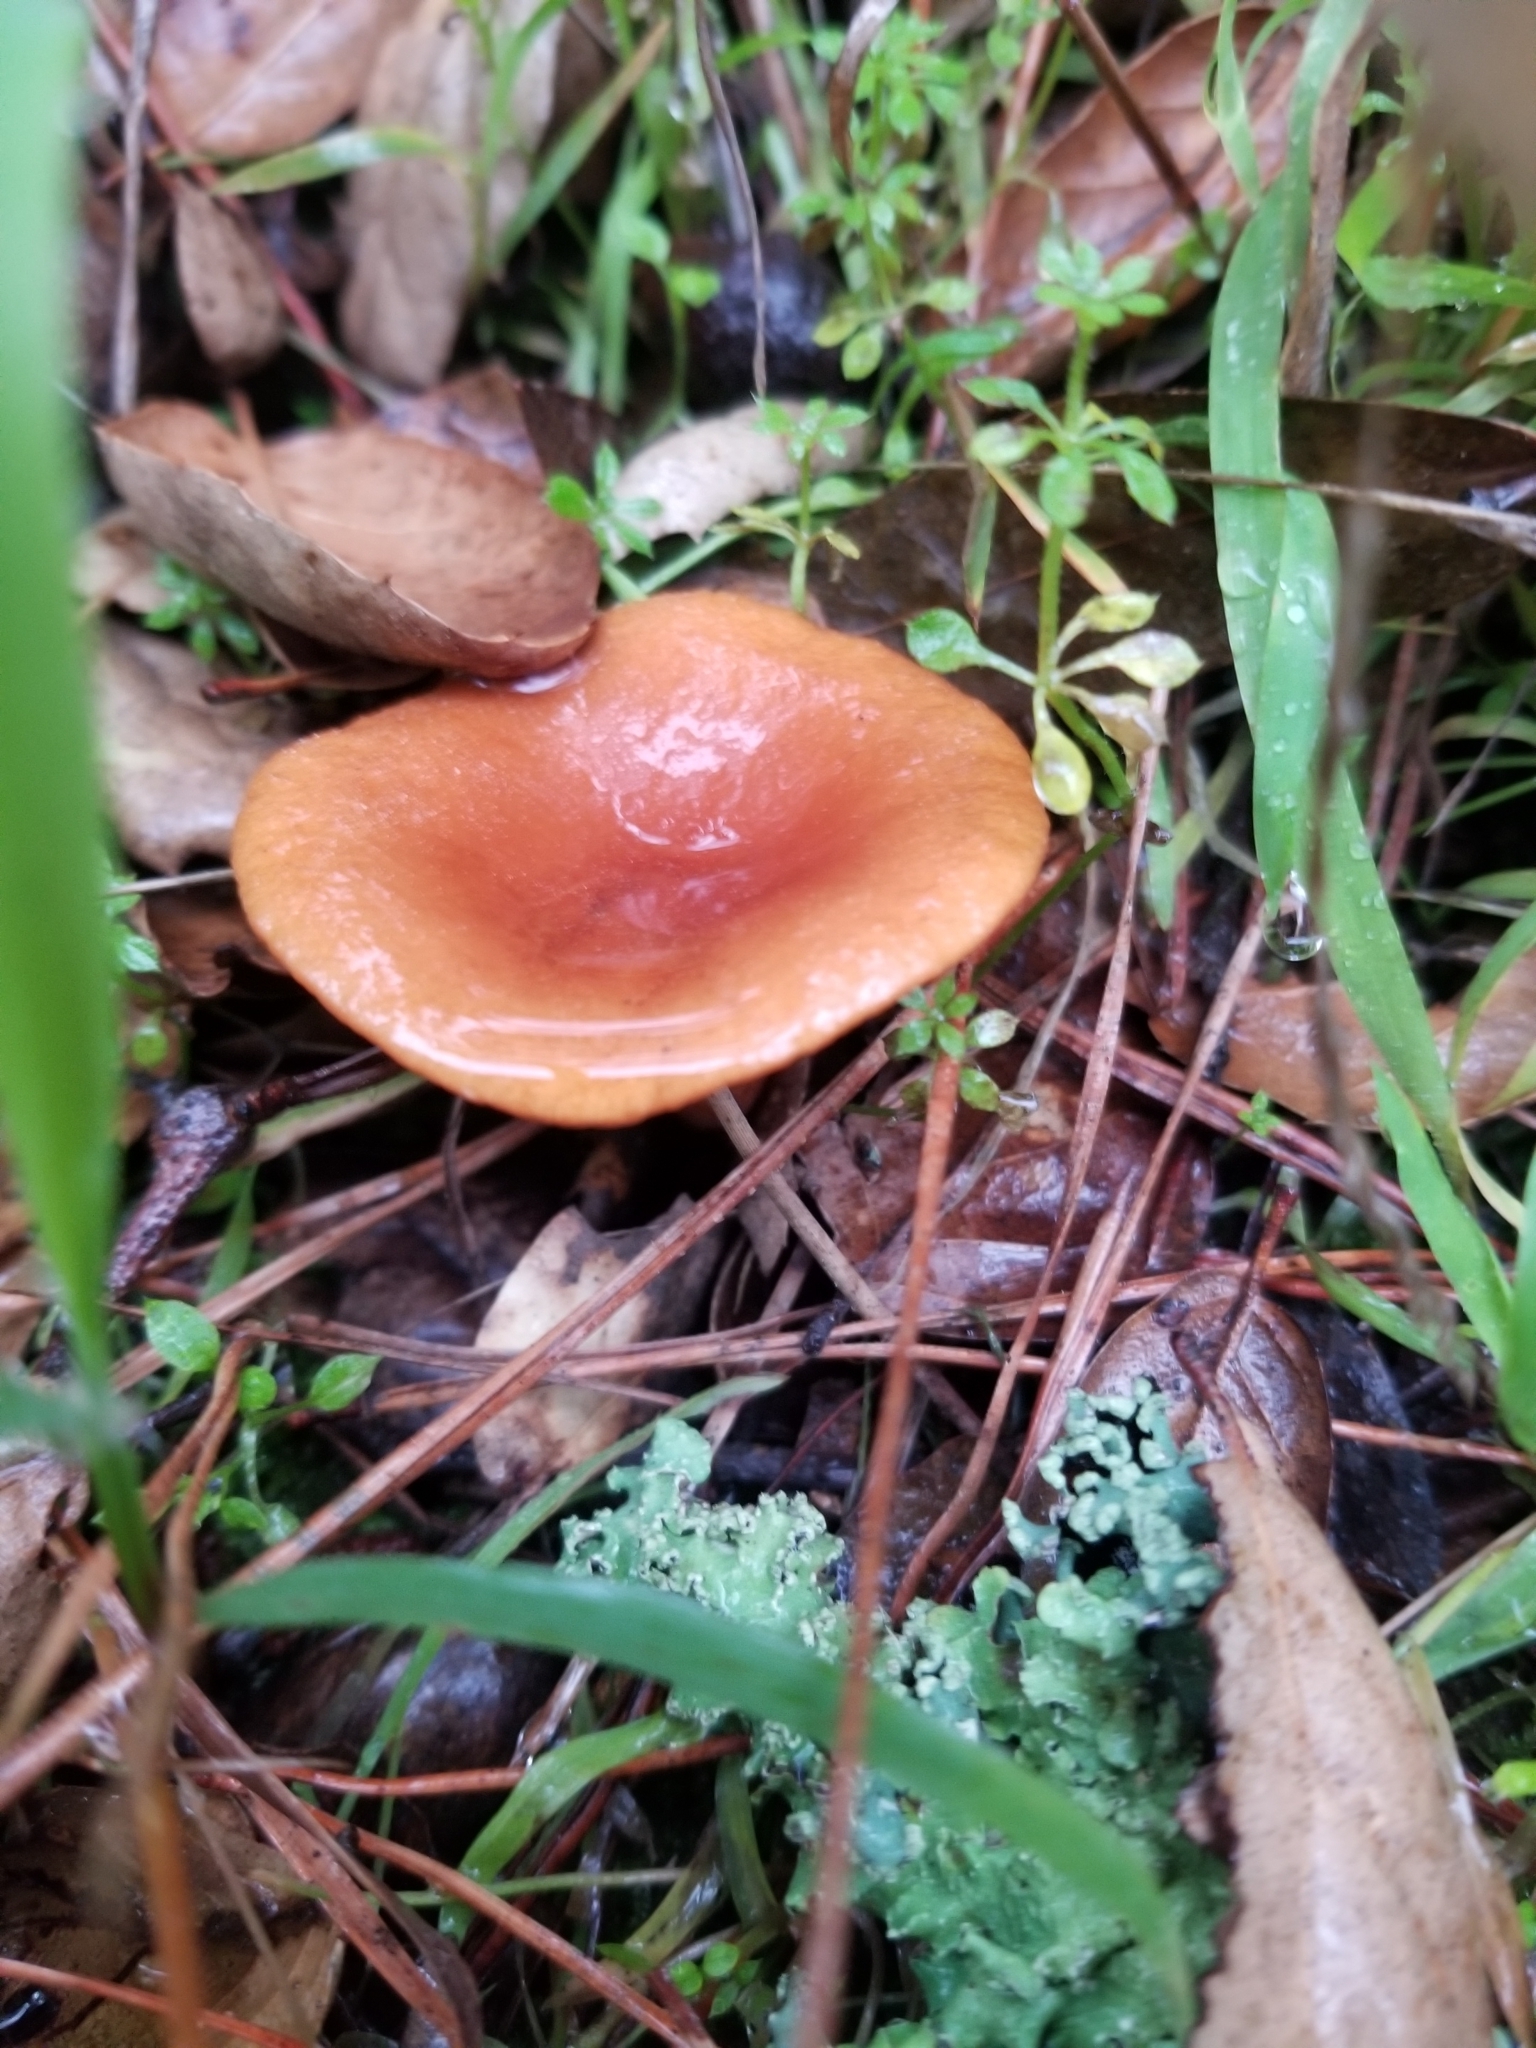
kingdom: Fungi
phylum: Basidiomycota
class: Agaricomycetes
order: Russulales
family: Russulaceae
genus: Lactarius
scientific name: Lactarius rubidus
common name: Candy cap
